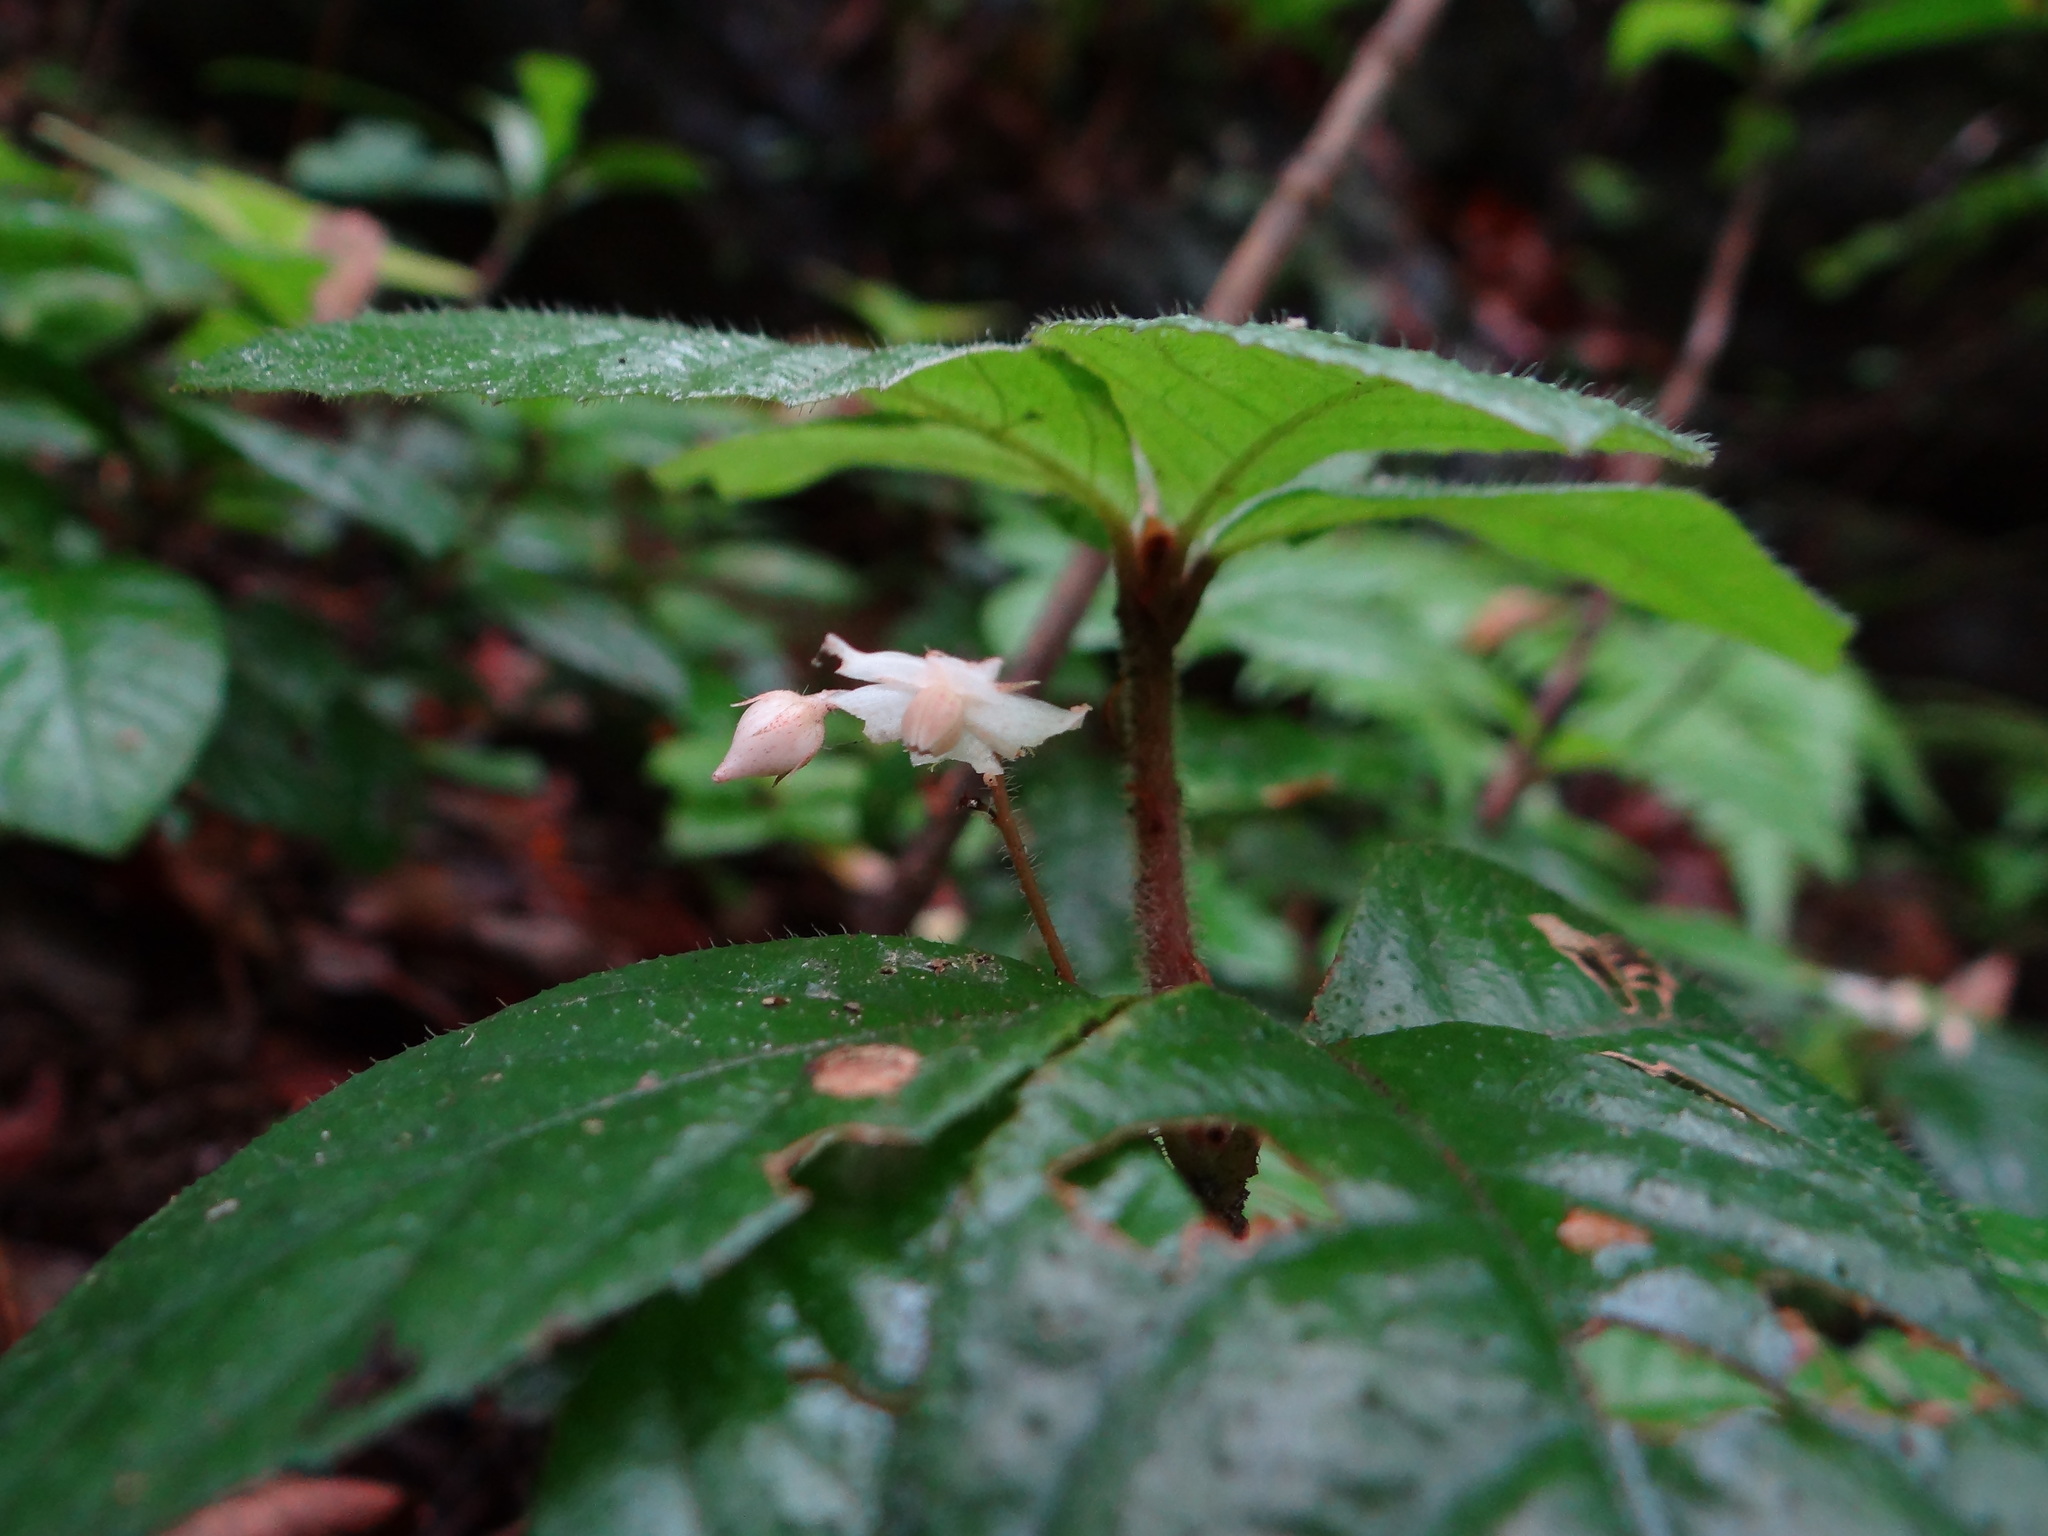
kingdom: Plantae
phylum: Tracheophyta
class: Magnoliopsida
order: Ericales
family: Primulaceae
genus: Ardisia
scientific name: Ardisia pusilla
